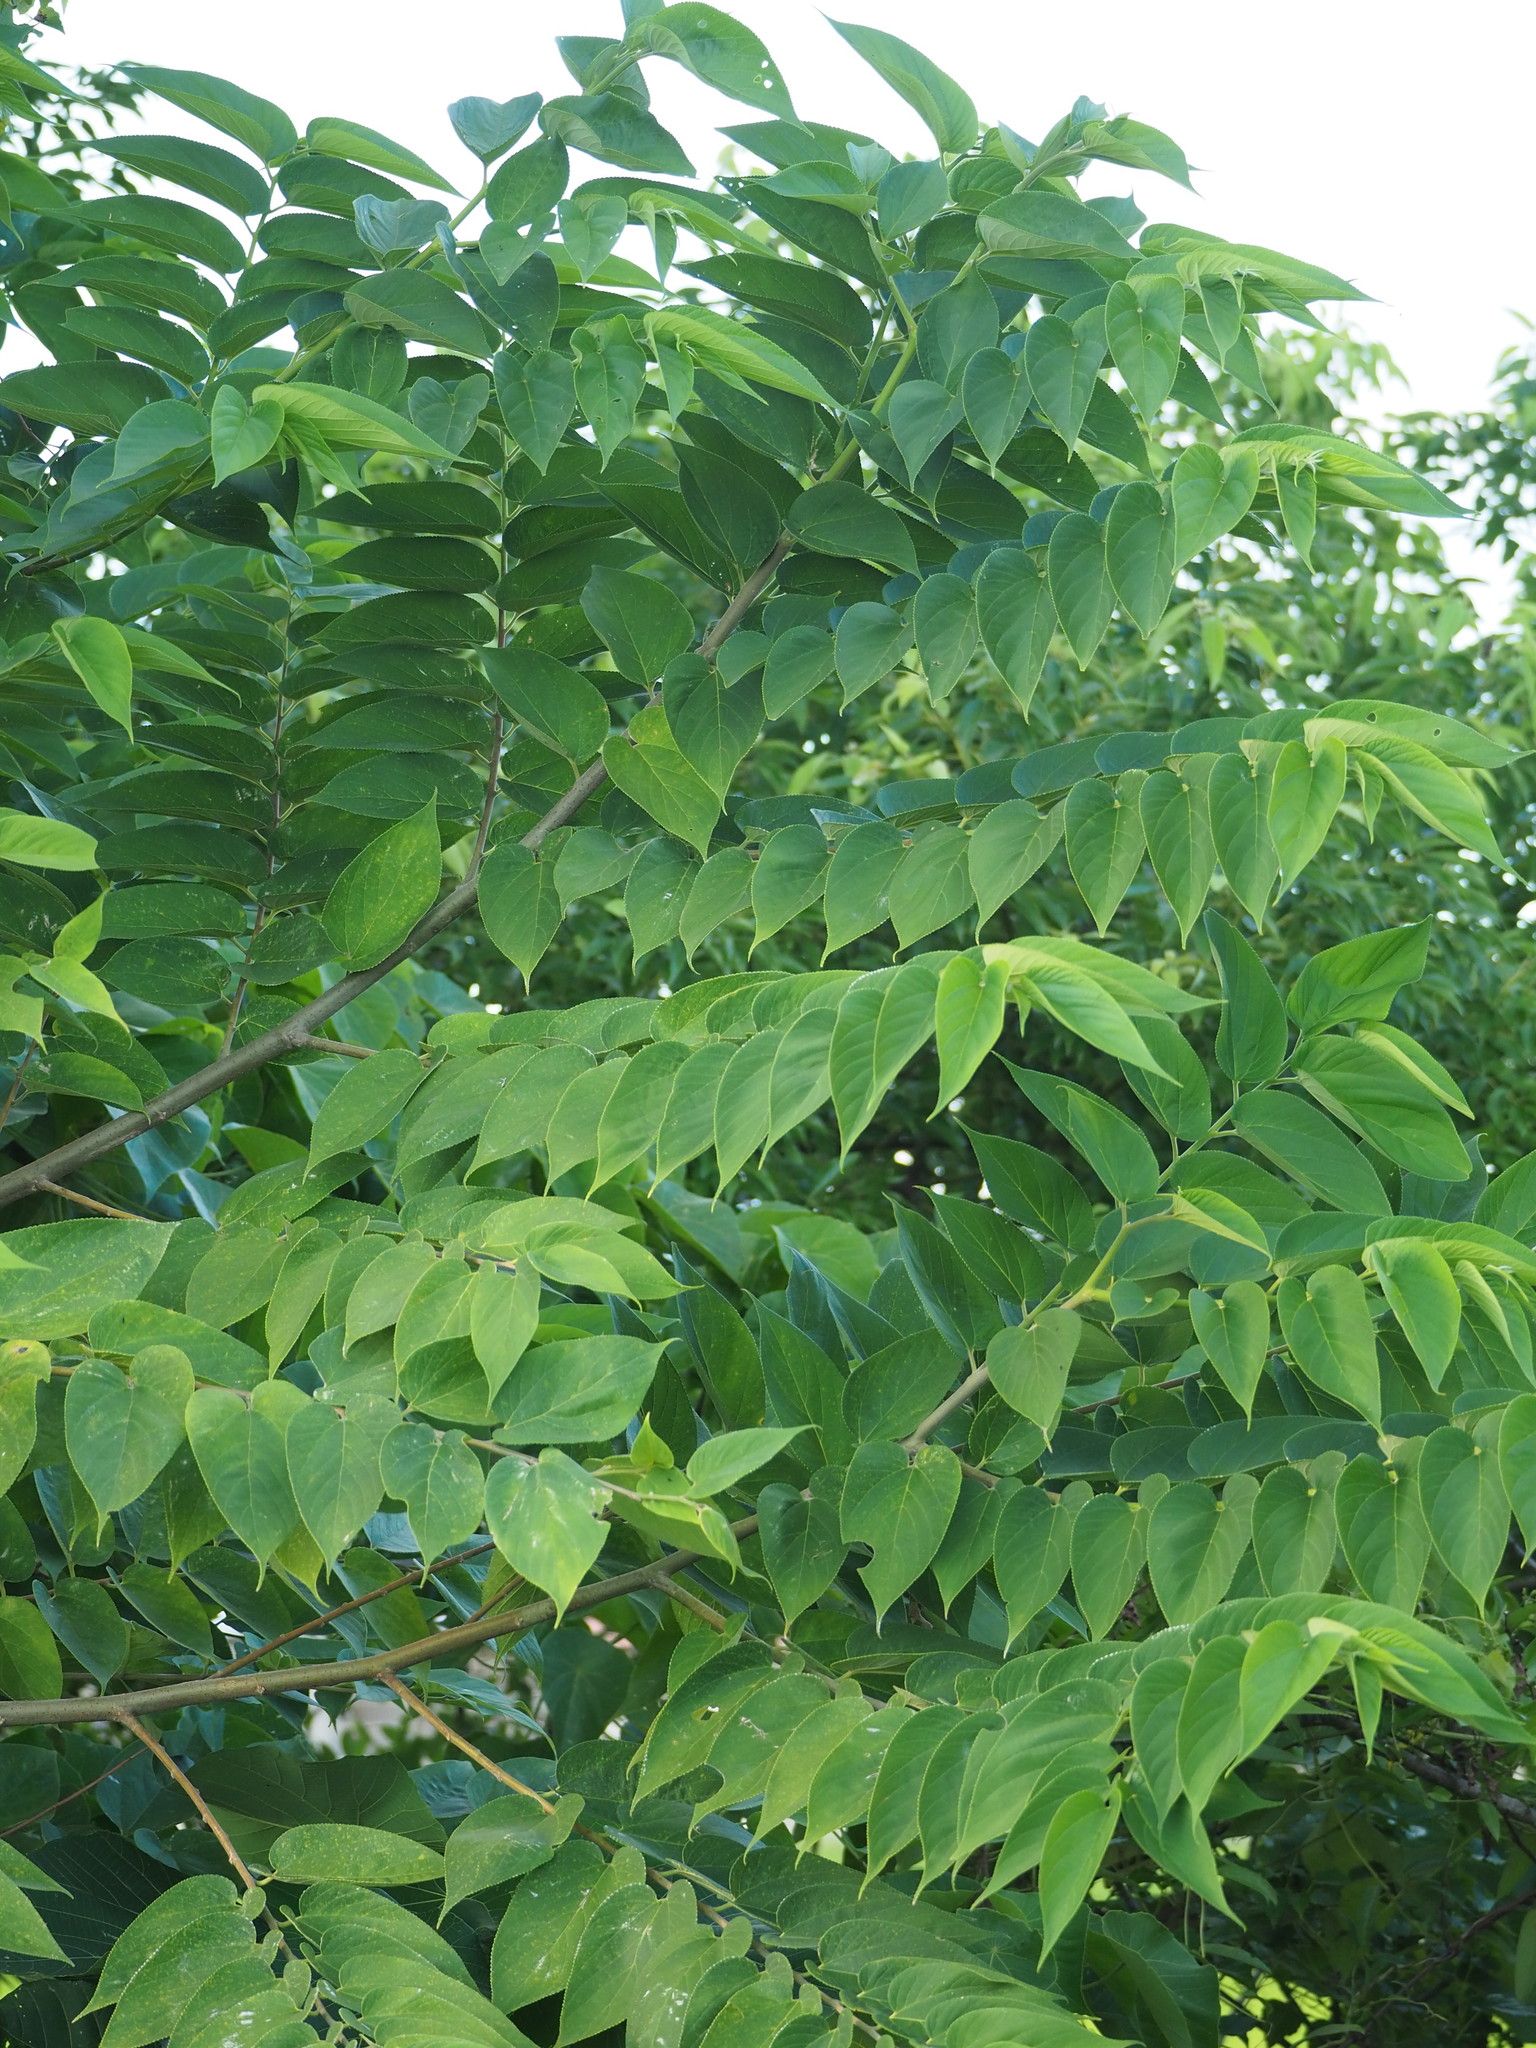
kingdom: Plantae
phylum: Tracheophyta
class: Magnoliopsida
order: Rosales
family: Cannabaceae
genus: Trema
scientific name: Trema orientale
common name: Indian charcoal tree
